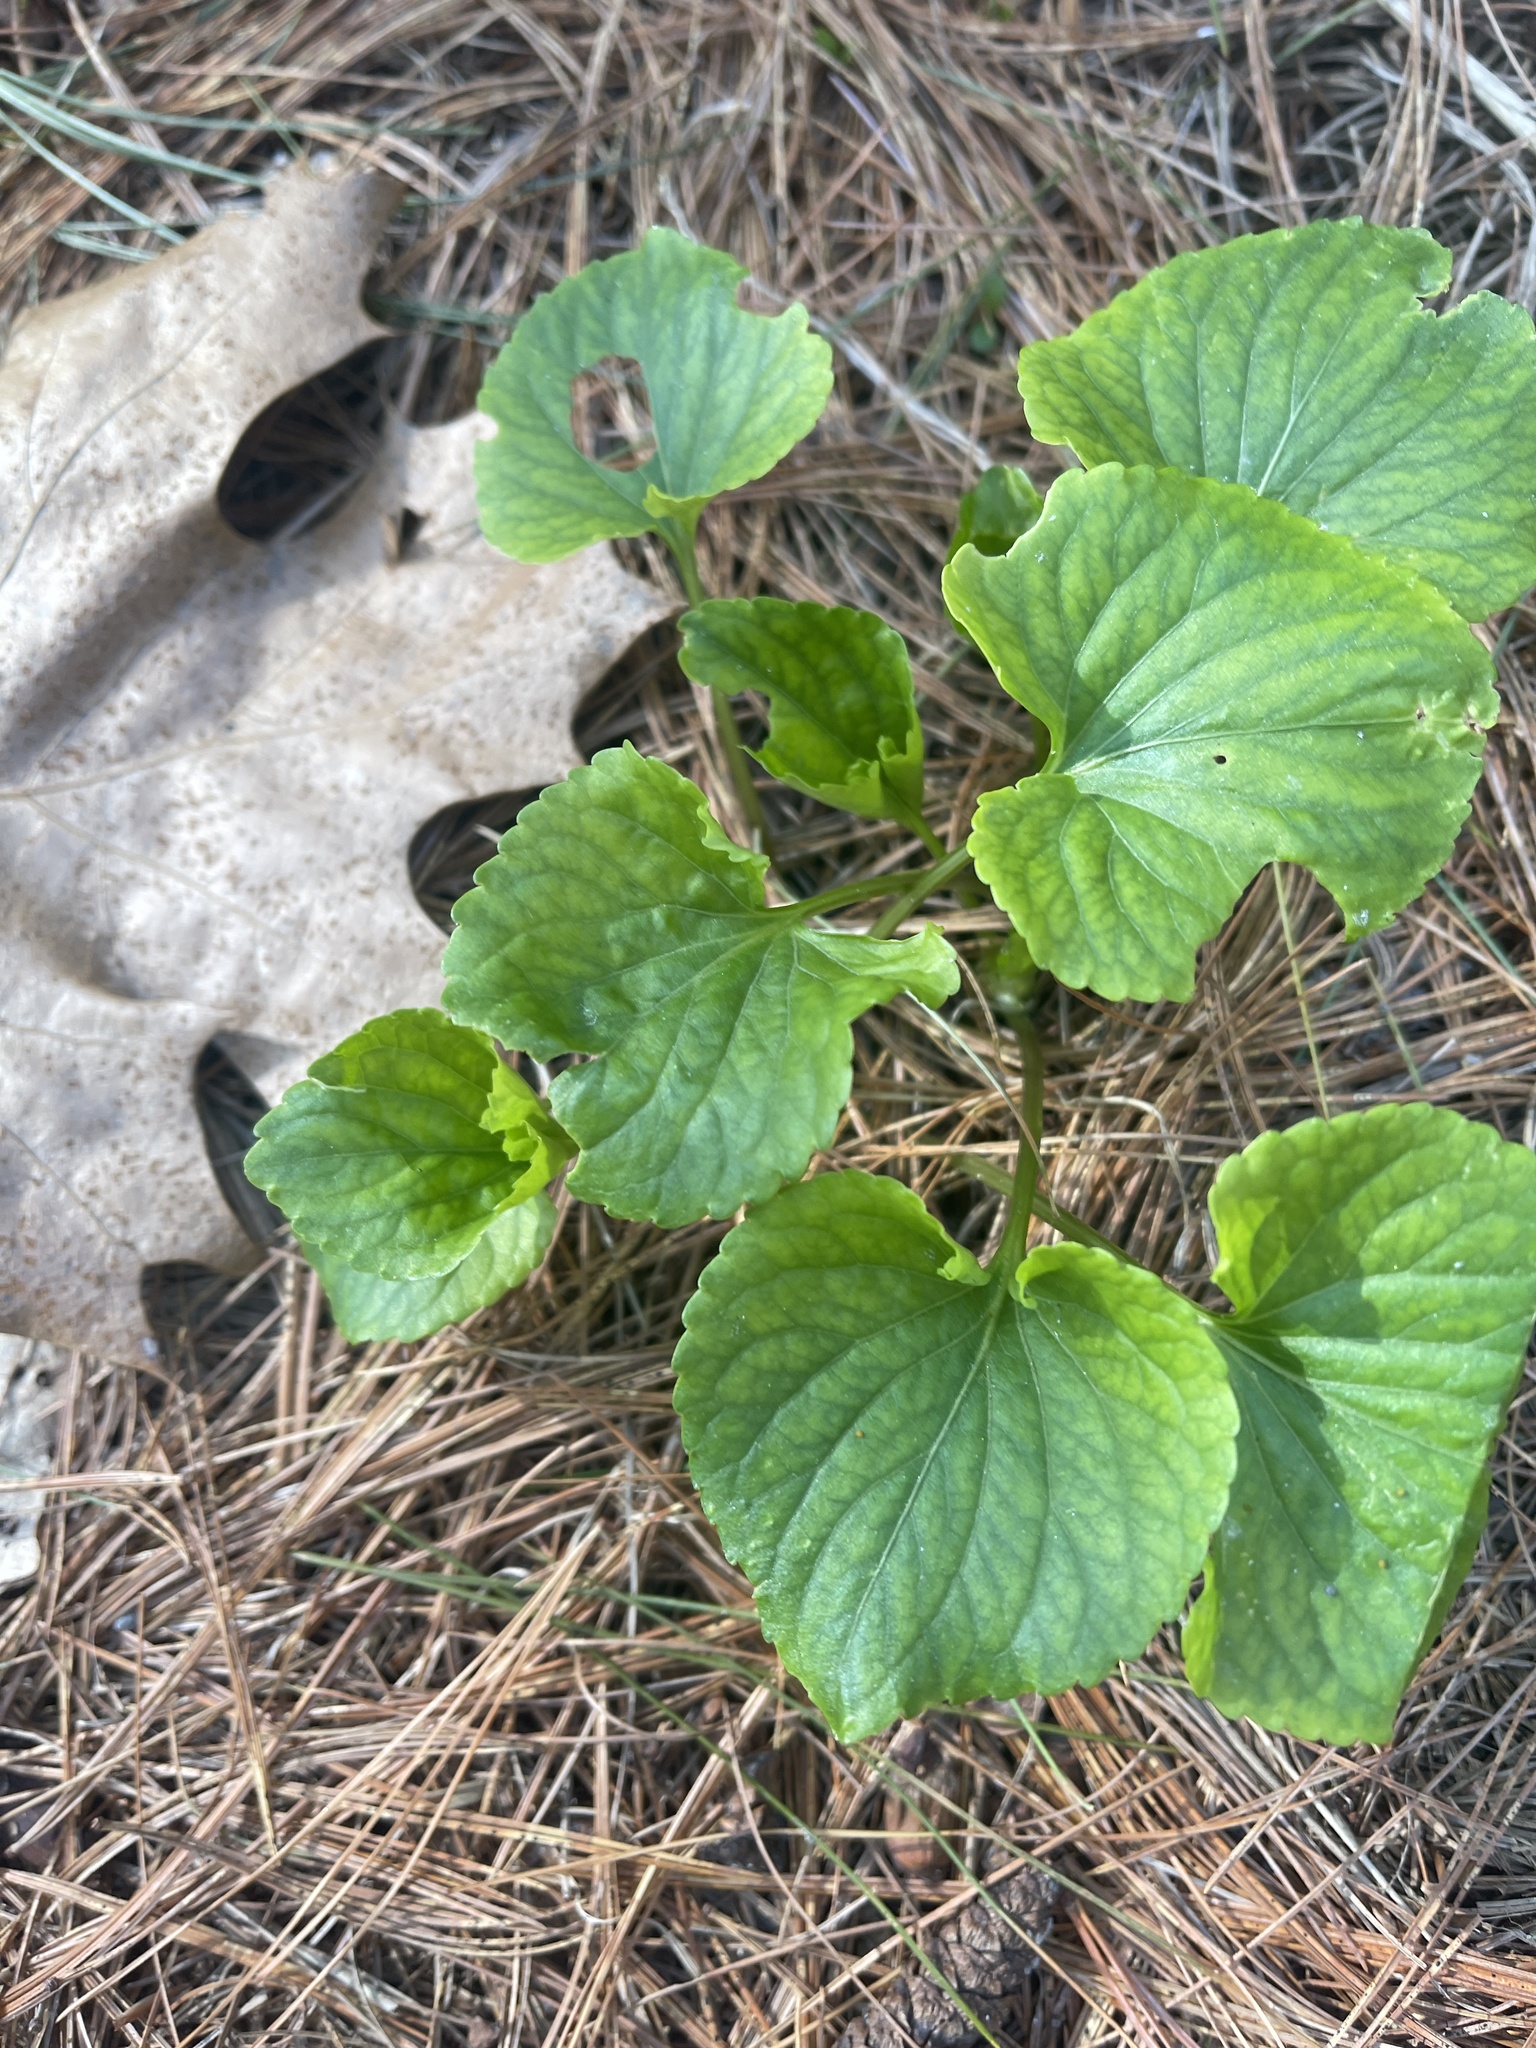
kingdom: Plantae
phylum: Tracheophyta
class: Magnoliopsida
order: Malpighiales
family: Violaceae
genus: Viola
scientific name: Viola cucullata
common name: Marsh blue violet
